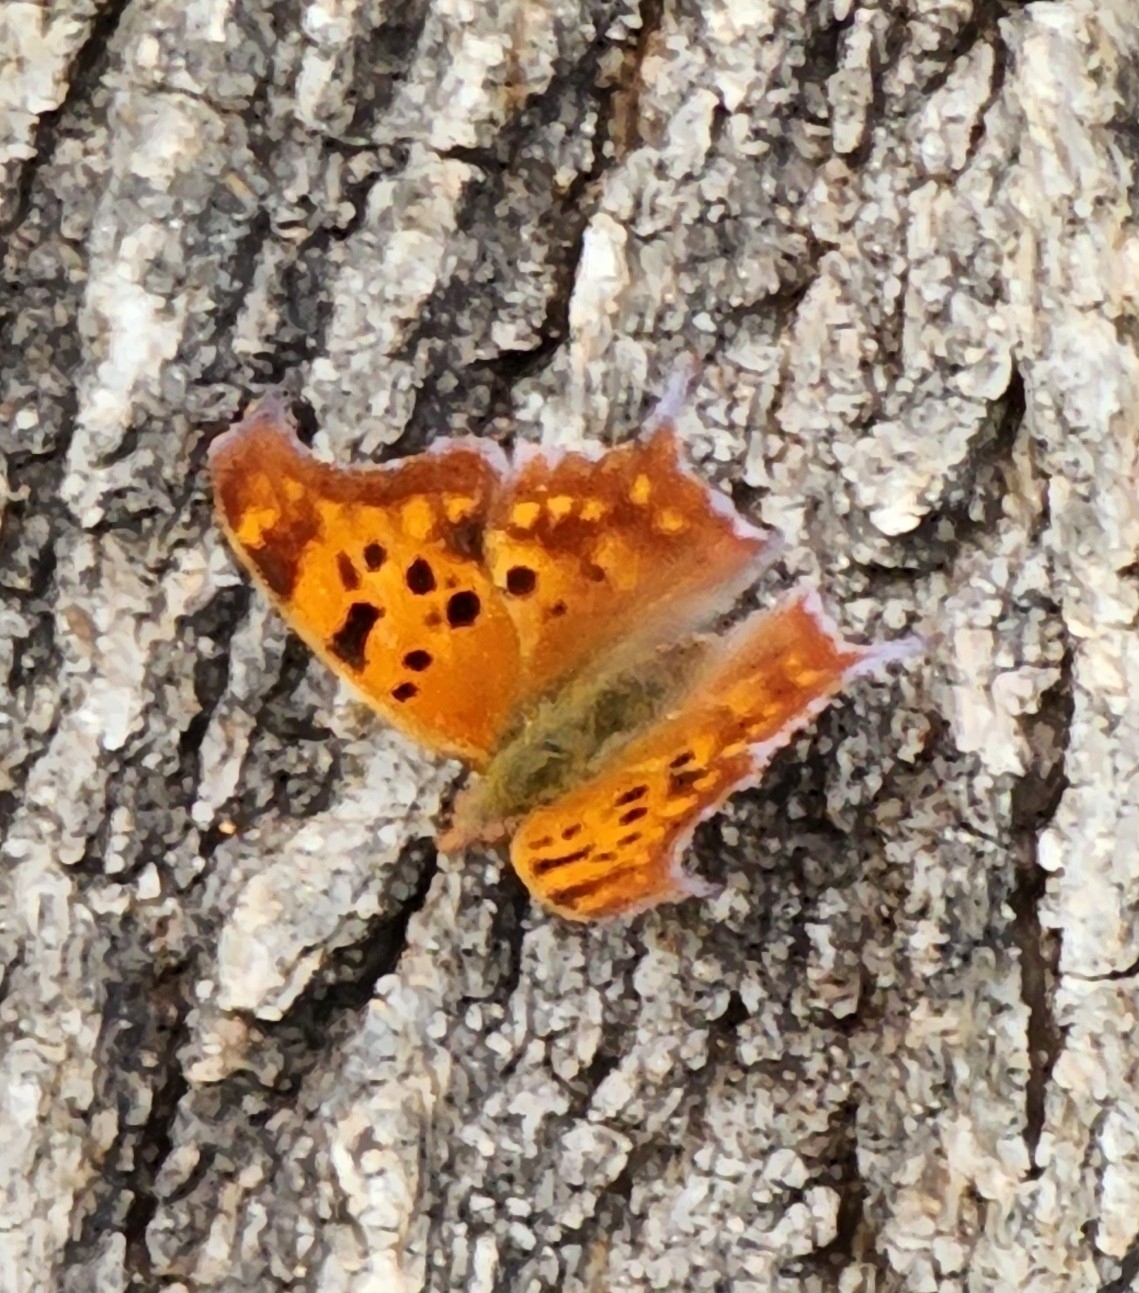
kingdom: Animalia
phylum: Arthropoda
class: Insecta
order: Lepidoptera
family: Nymphalidae
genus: Polygonia
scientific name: Polygonia interrogationis
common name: Question mark
